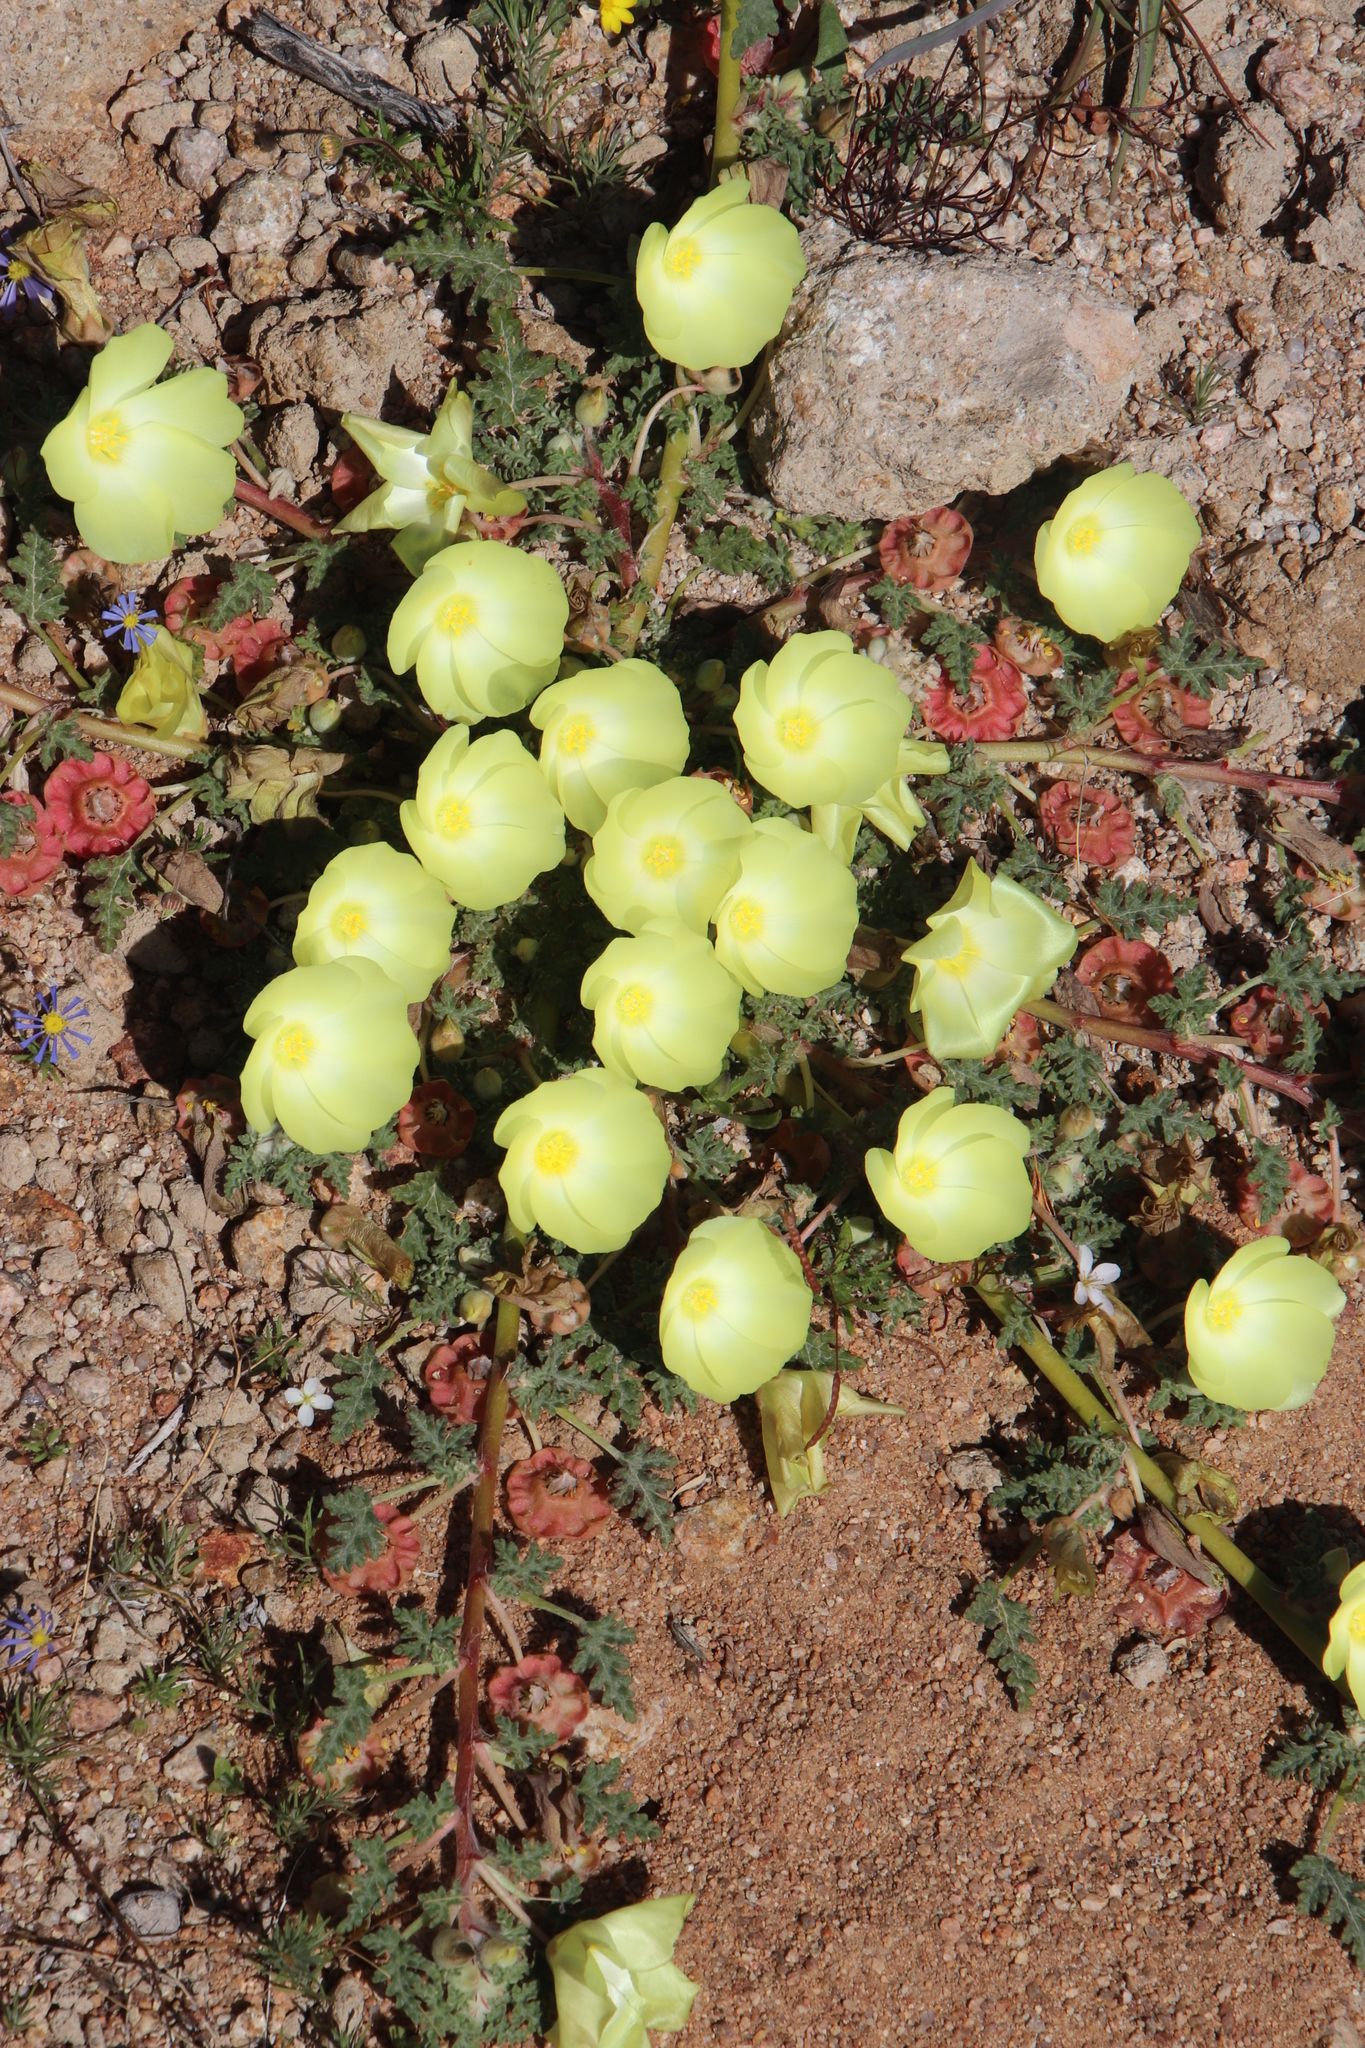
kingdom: Plantae
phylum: Tracheophyta
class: Magnoliopsida
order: Malvales
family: Neuradaceae
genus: Grielum
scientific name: Grielum humifusum
